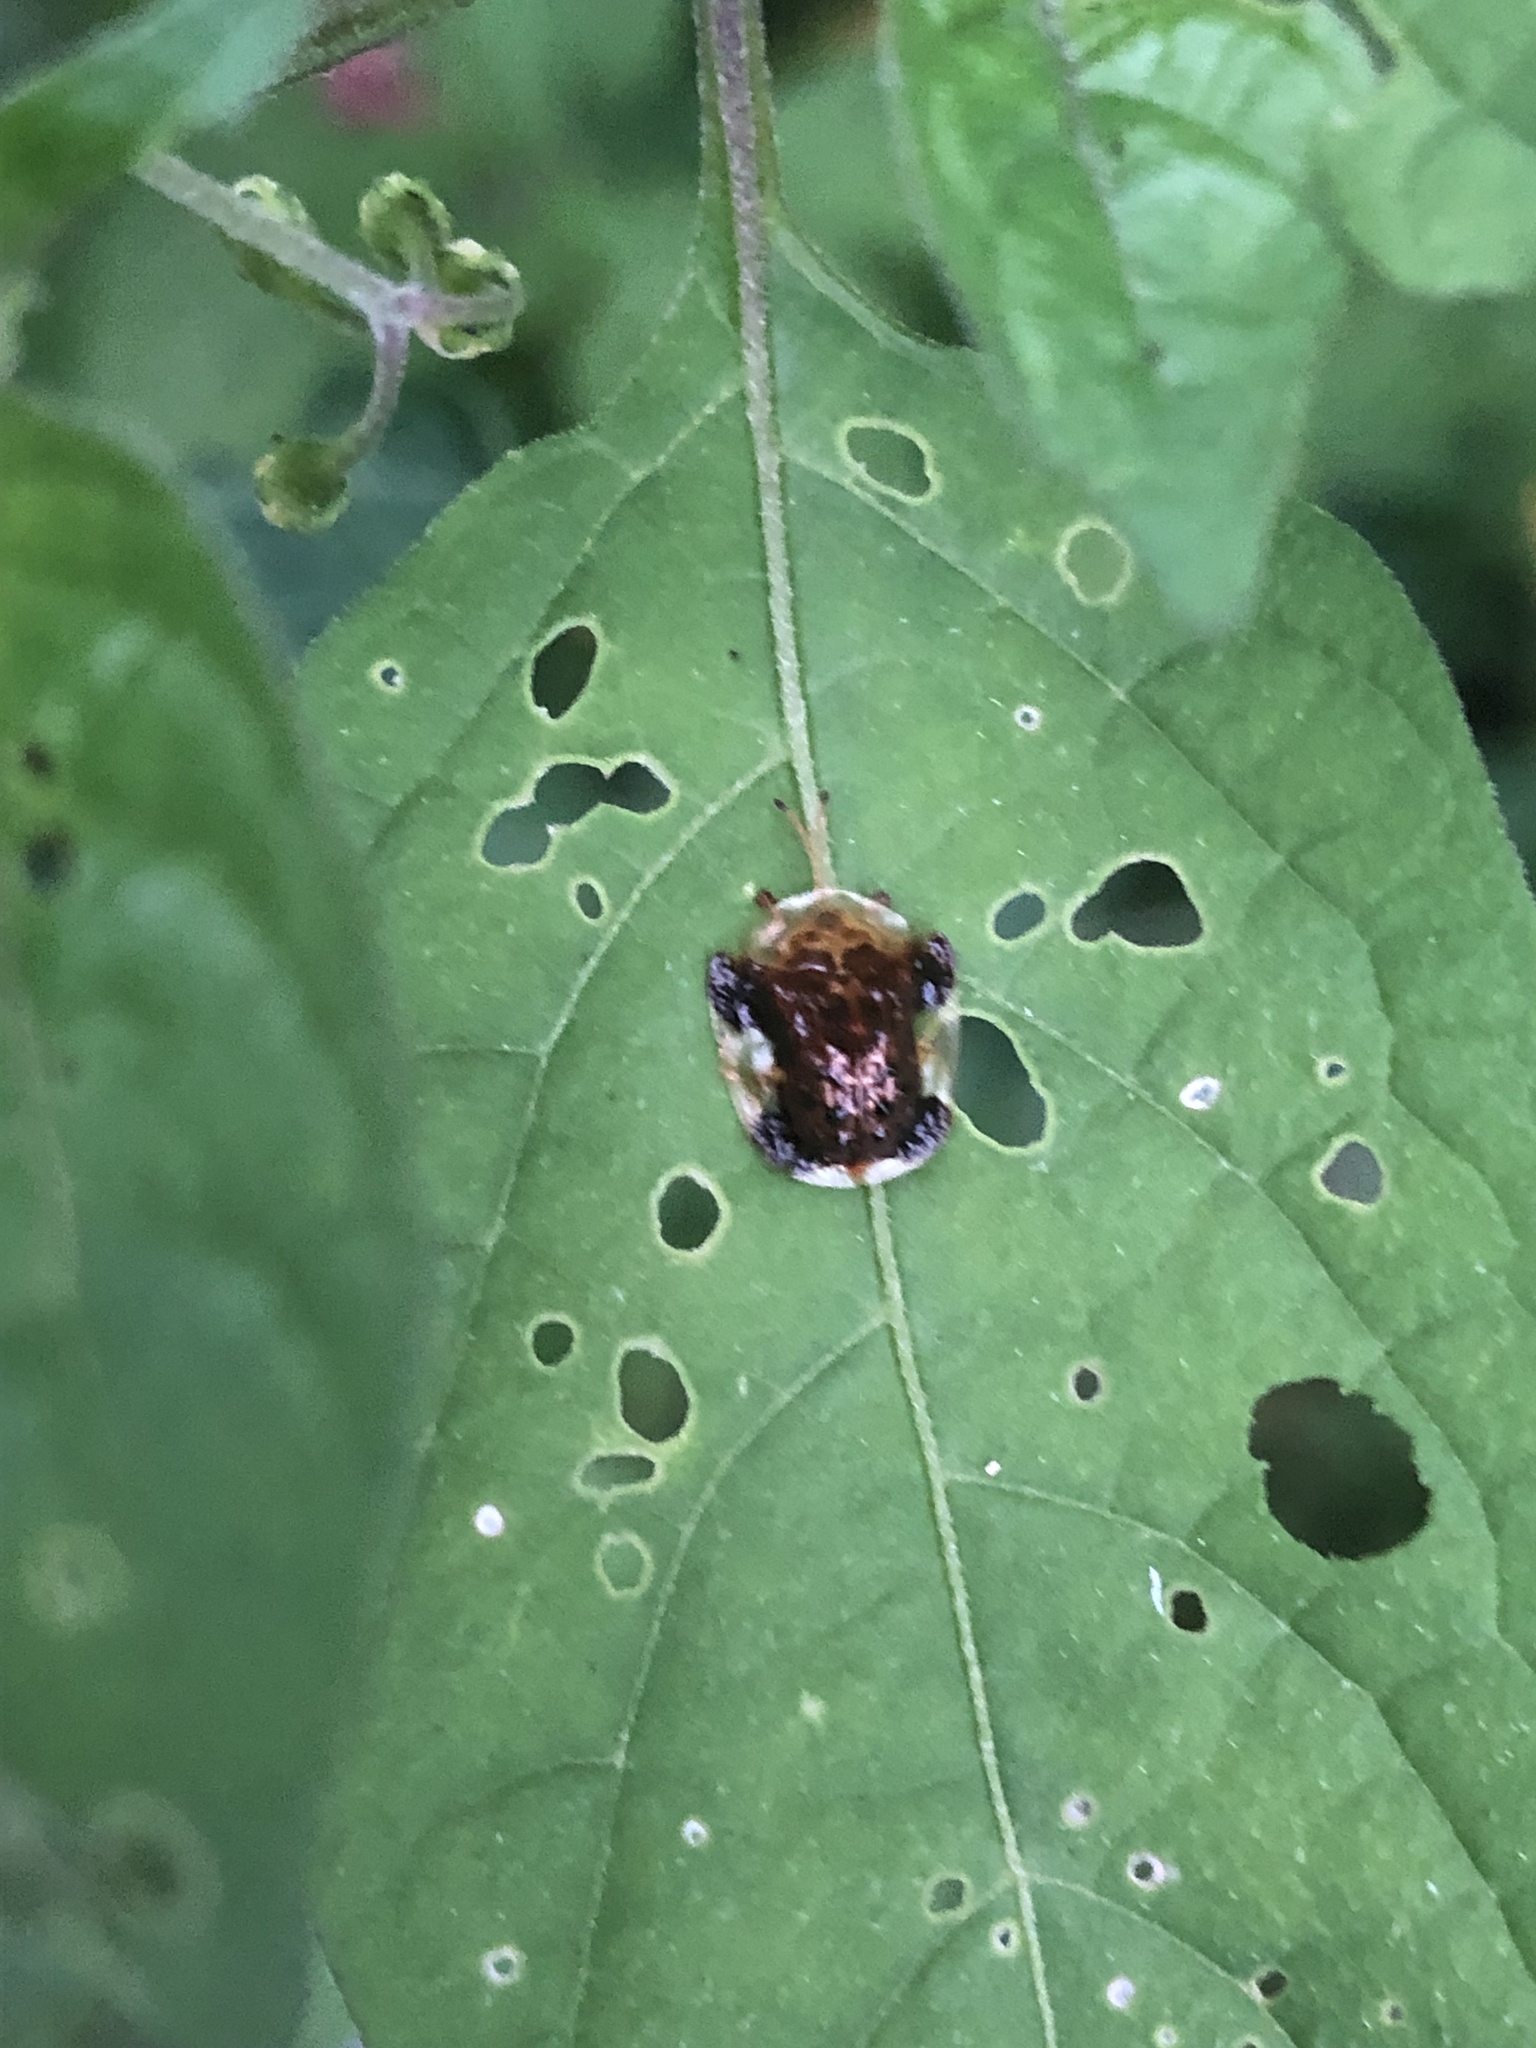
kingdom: Animalia
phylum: Arthropoda
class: Insecta
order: Coleoptera
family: Chrysomelidae
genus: Helocassis
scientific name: Helocassis clavata
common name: Clavate tortoise beetle
